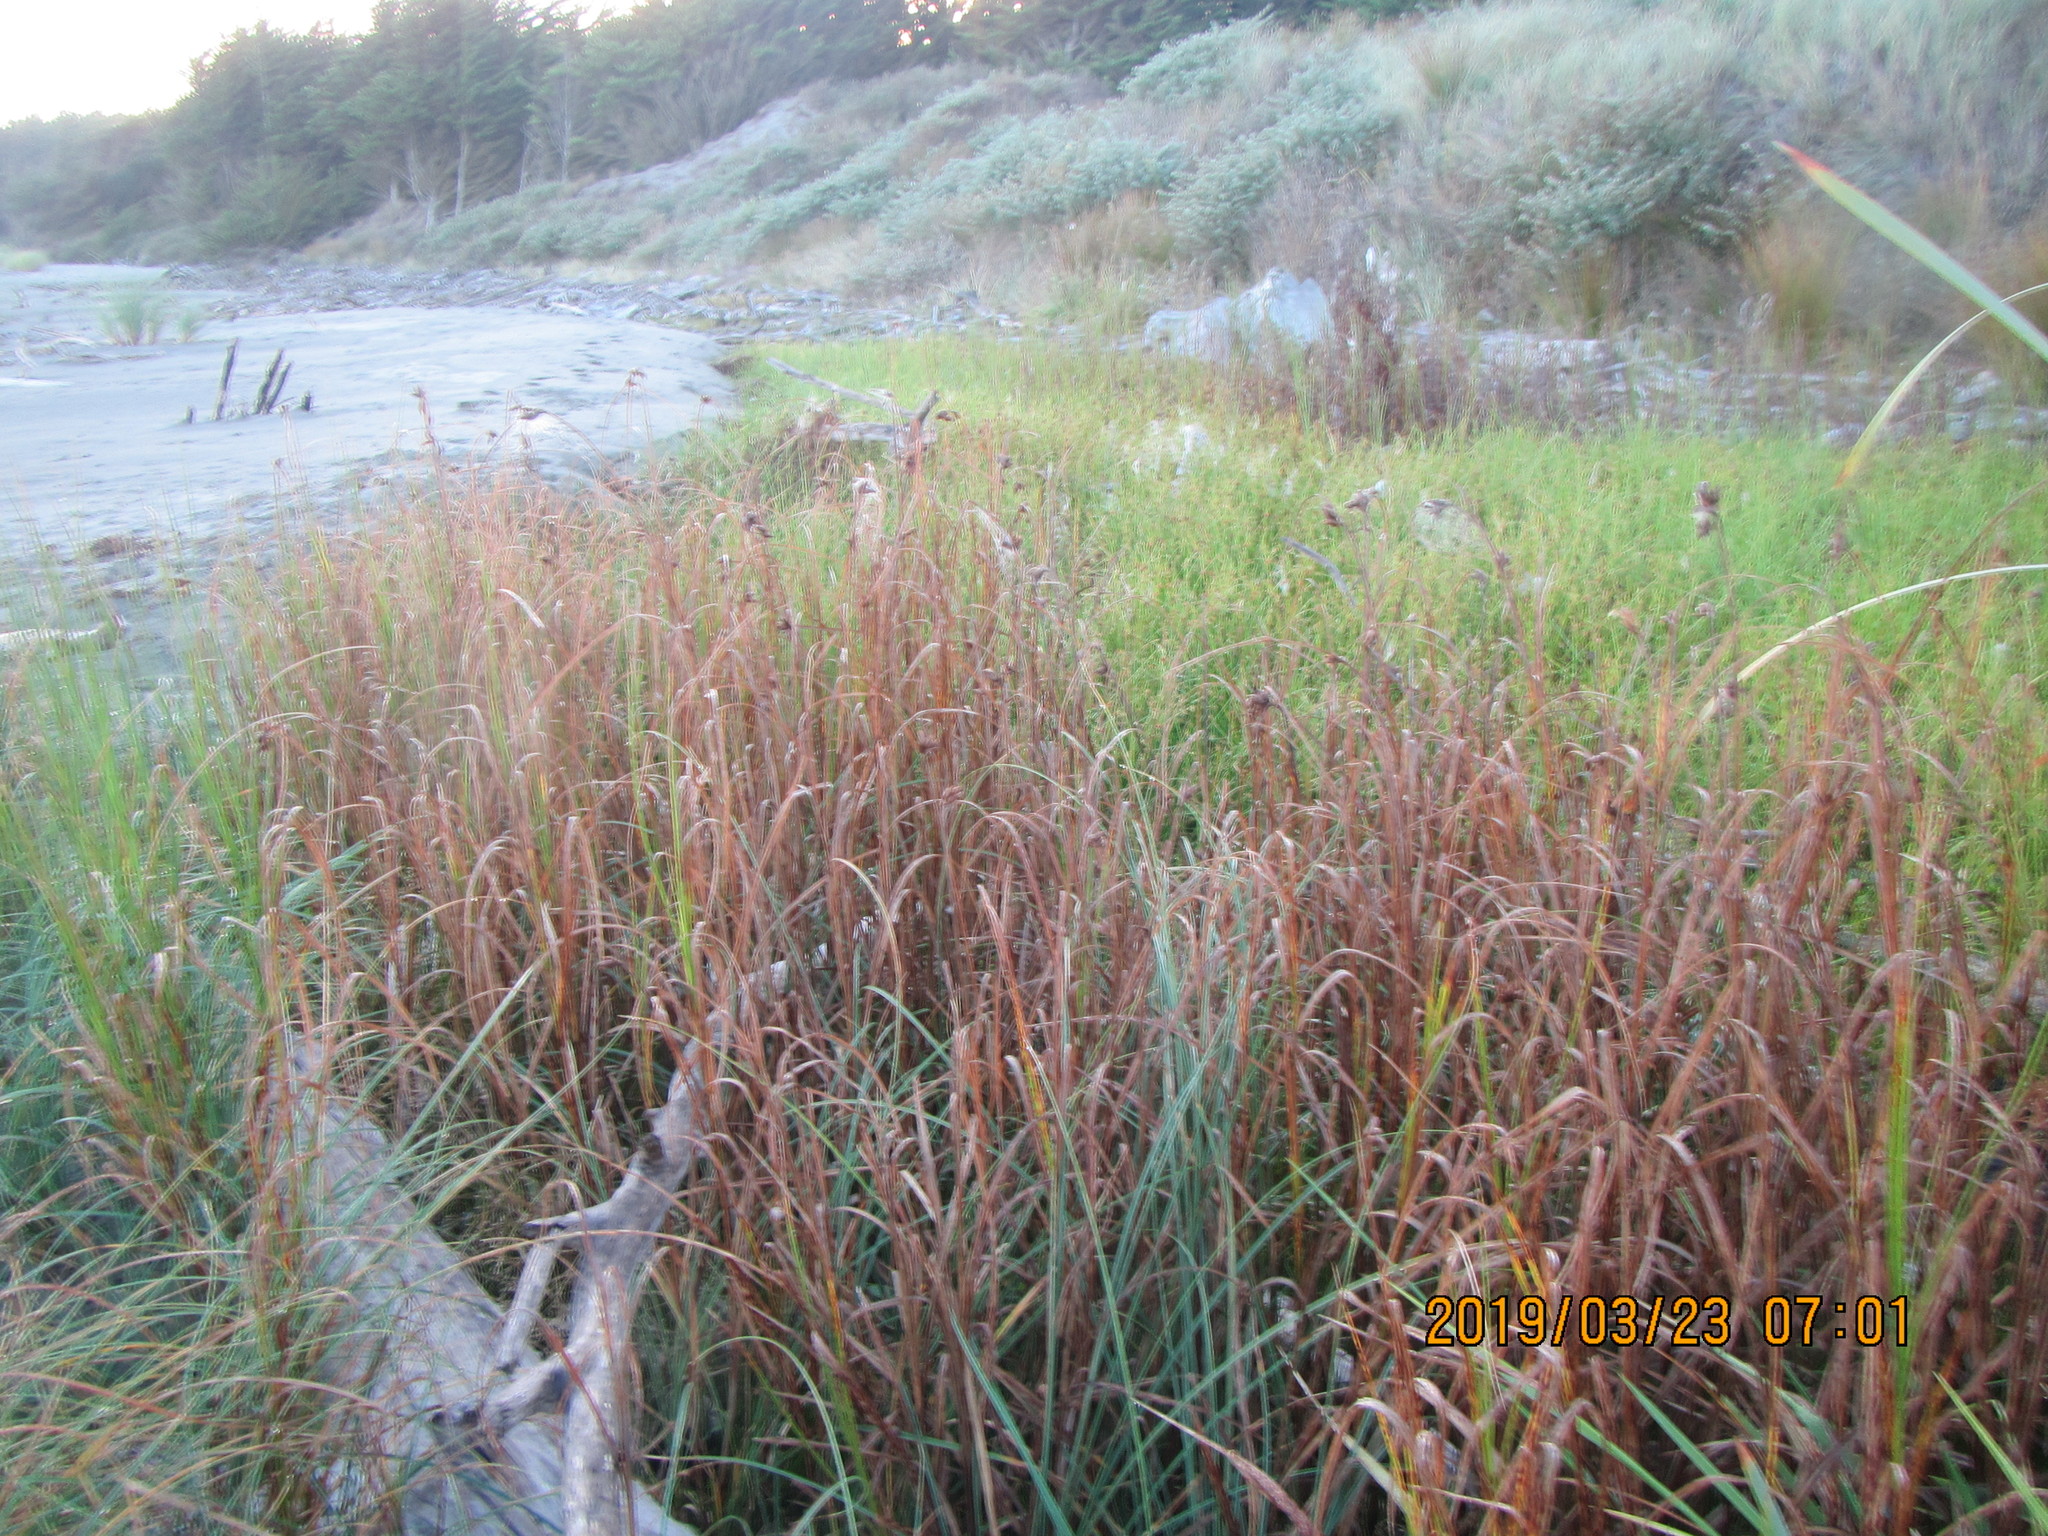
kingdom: Plantae
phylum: Tracheophyta
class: Liliopsida
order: Poales
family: Cyperaceae
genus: Schoenoplectus
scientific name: Schoenoplectus tabernaemontani
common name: Grey club-rush
